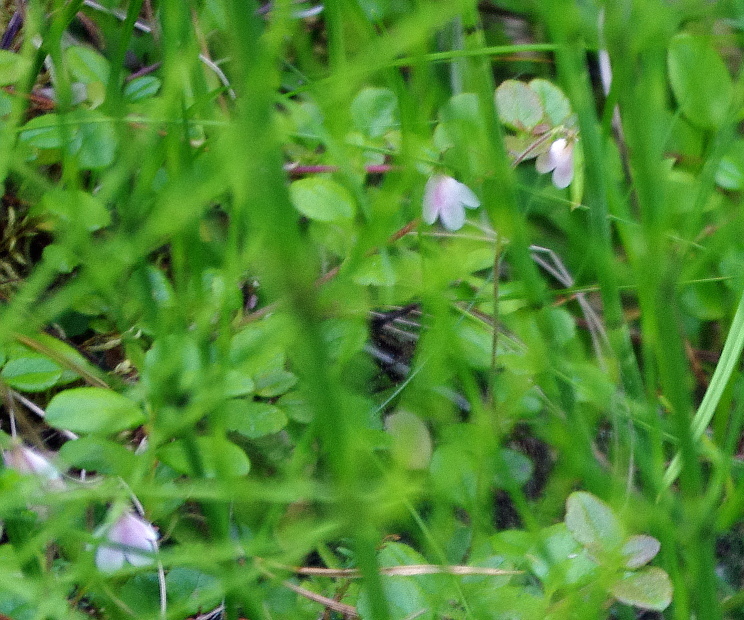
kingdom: Plantae
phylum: Tracheophyta
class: Magnoliopsida
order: Dipsacales
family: Caprifoliaceae
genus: Linnaea
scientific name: Linnaea borealis
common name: Twinflower
